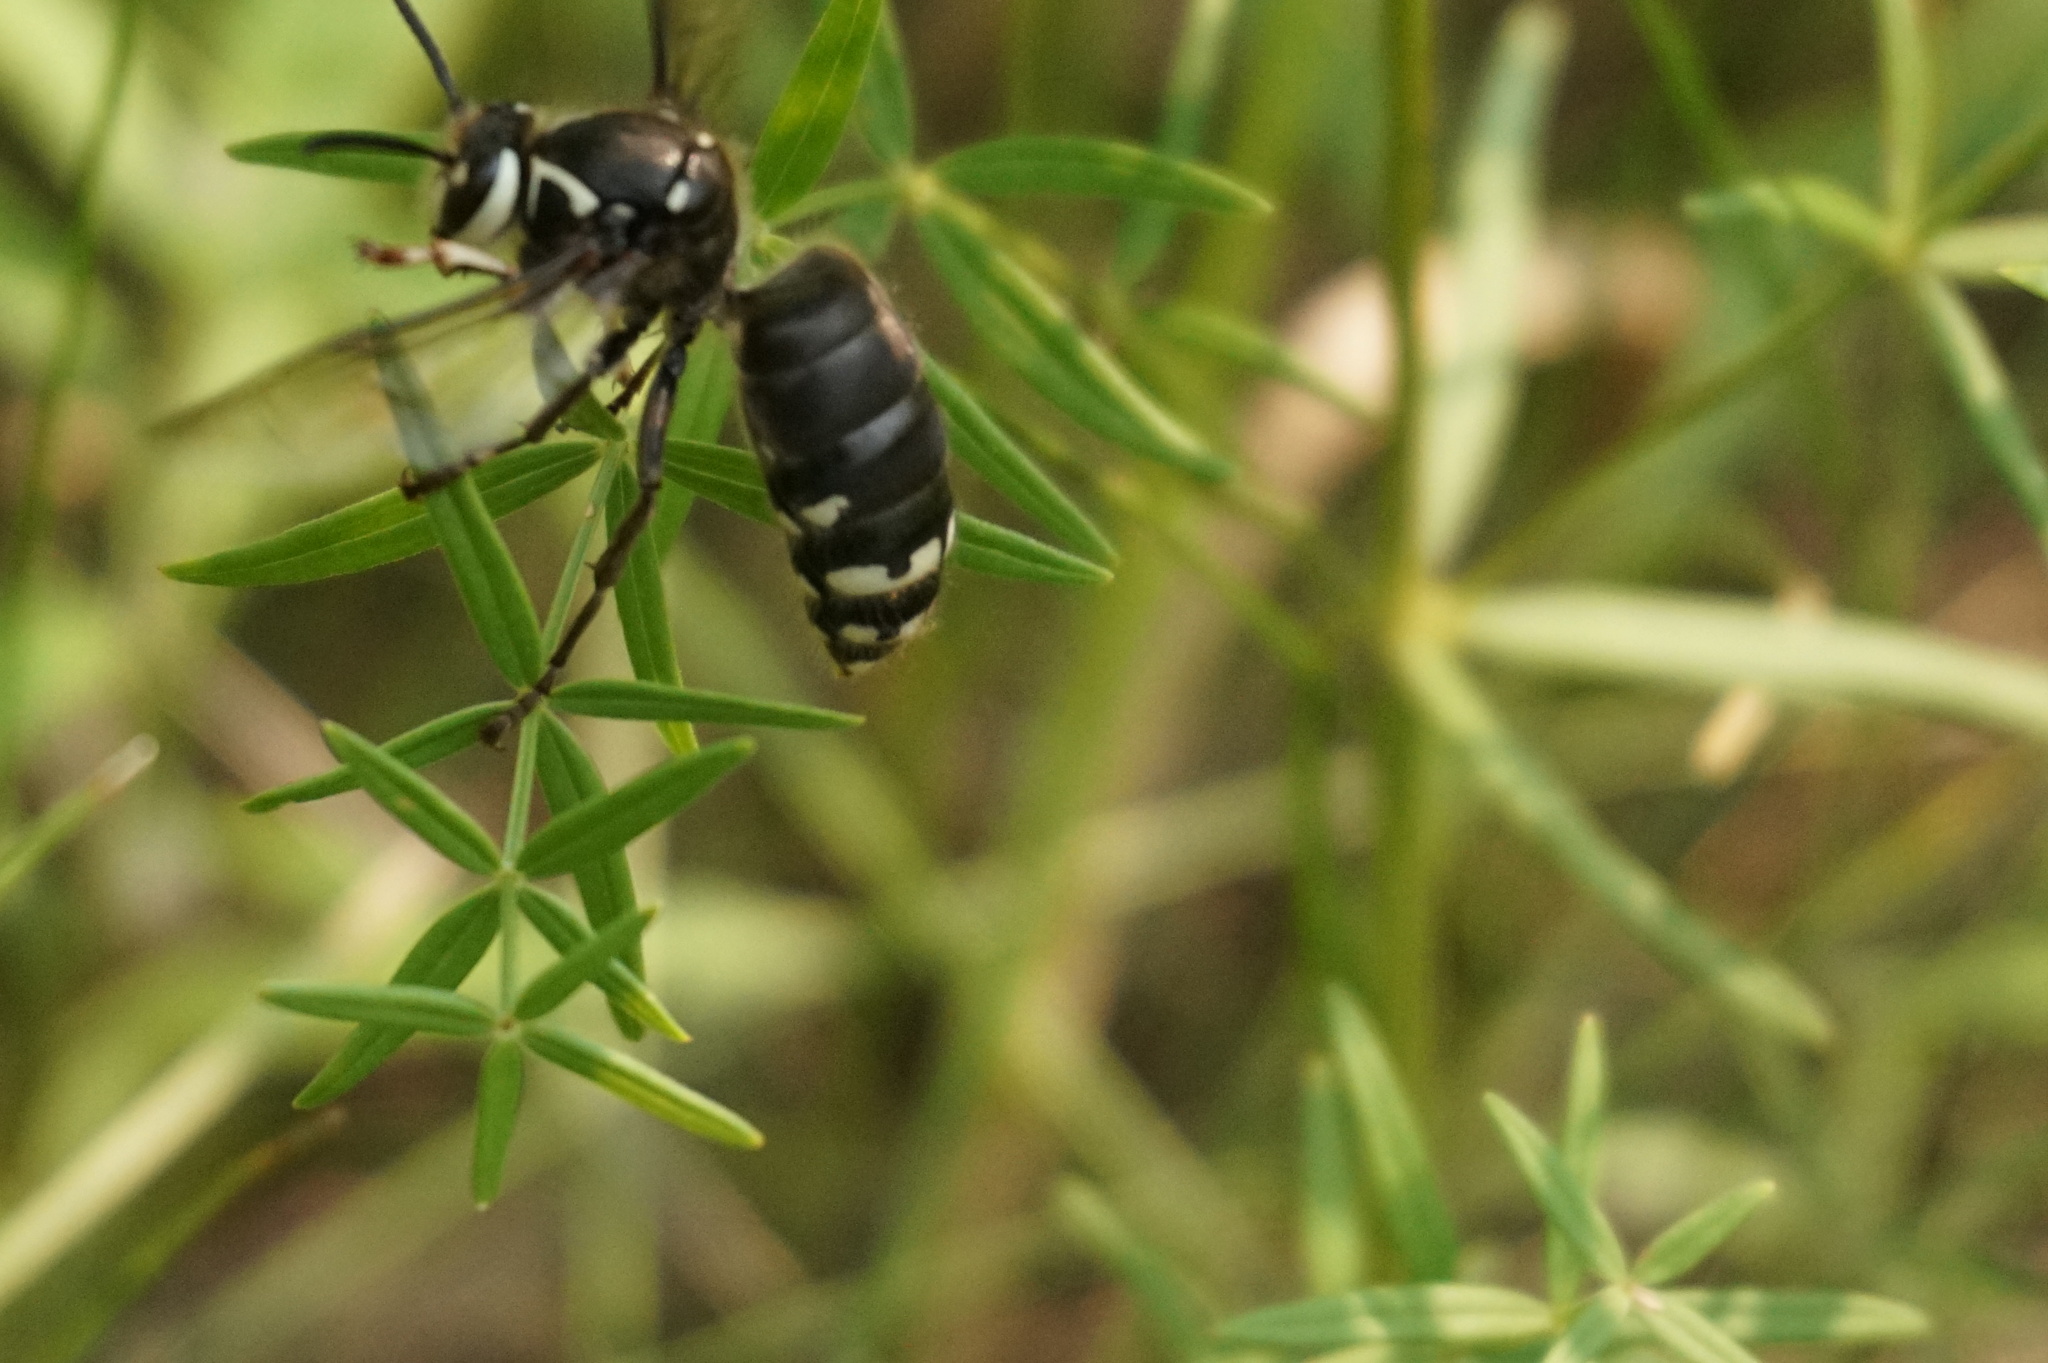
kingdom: Animalia
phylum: Arthropoda
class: Insecta
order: Hymenoptera
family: Vespidae
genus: Dolichovespula
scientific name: Dolichovespula maculata
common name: Bald-faced hornet
